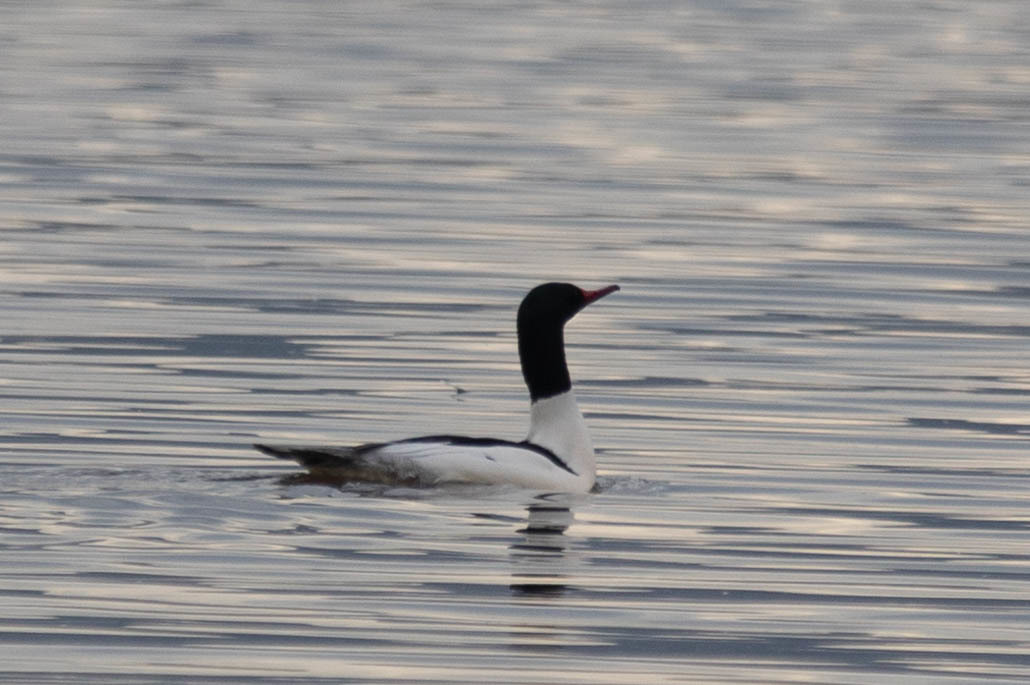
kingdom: Animalia
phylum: Chordata
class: Aves
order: Anseriformes
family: Anatidae
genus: Mergus
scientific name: Mergus merganser
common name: Common merganser
